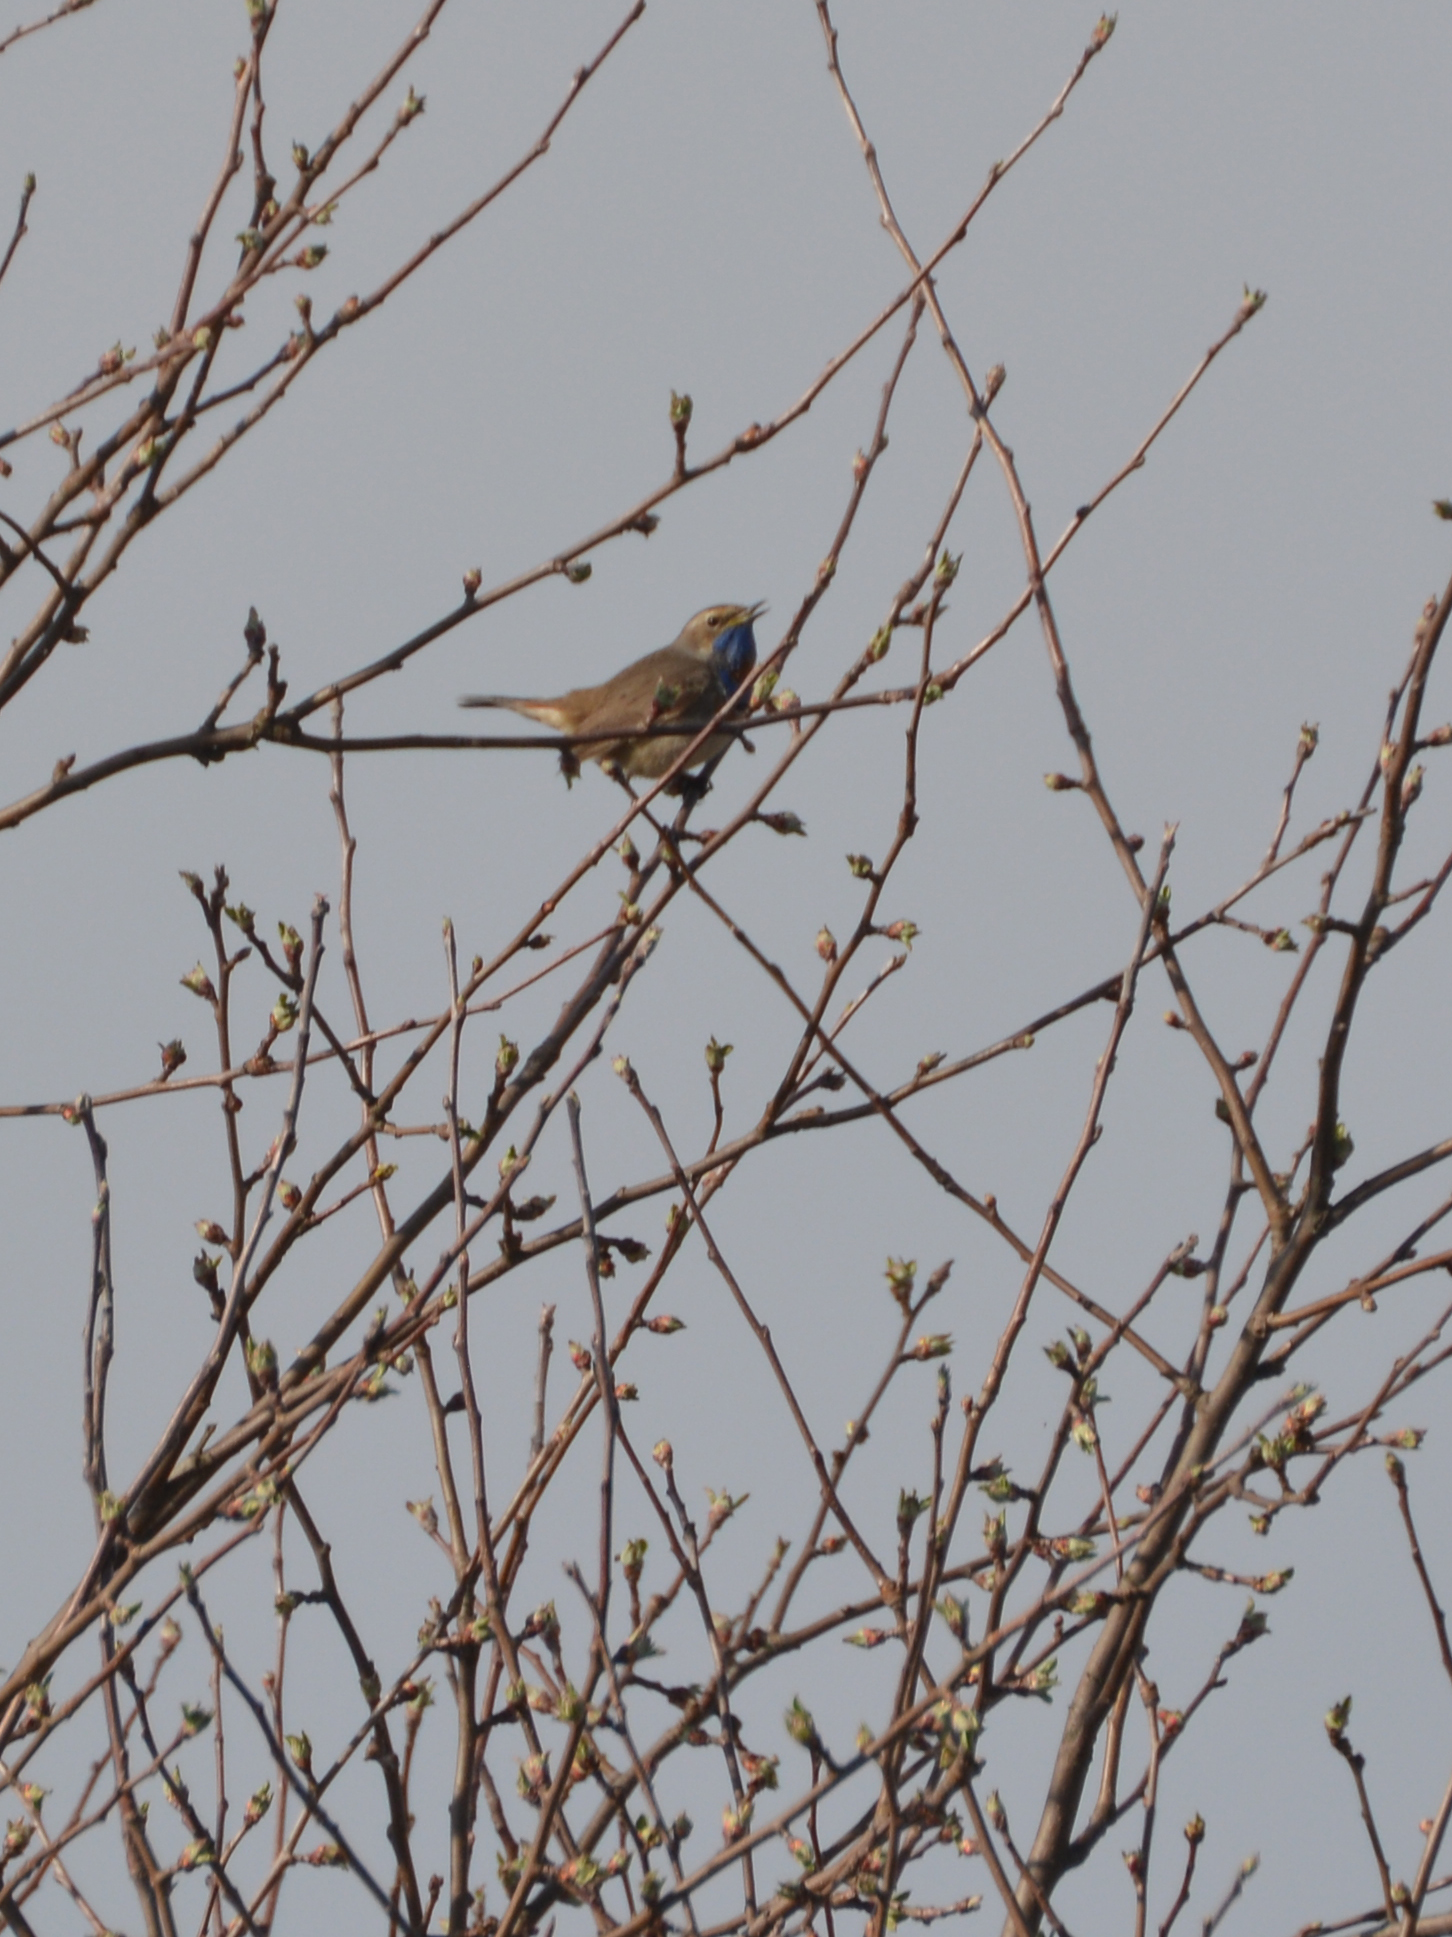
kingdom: Animalia
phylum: Chordata
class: Aves
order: Passeriformes
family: Muscicapidae
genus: Luscinia
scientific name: Luscinia svecica
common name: Bluethroat
